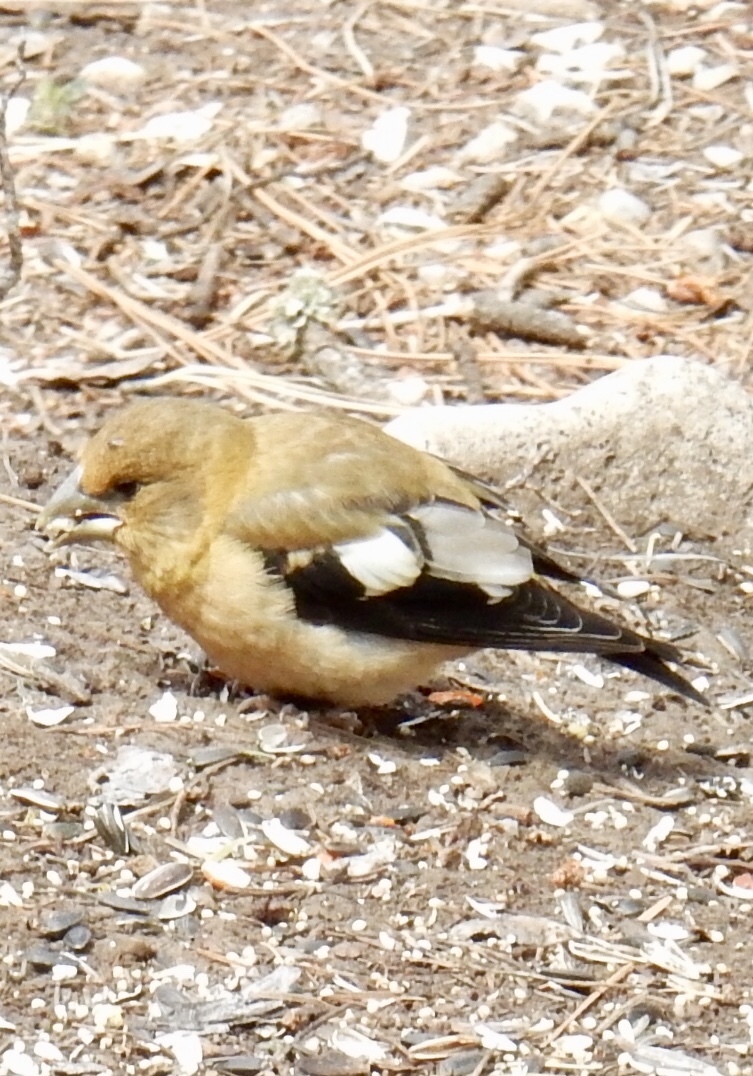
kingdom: Animalia
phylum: Chordata
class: Aves
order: Passeriformes
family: Fringillidae
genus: Hesperiphona
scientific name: Hesperiphona vespertina
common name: Evening grosbeak
